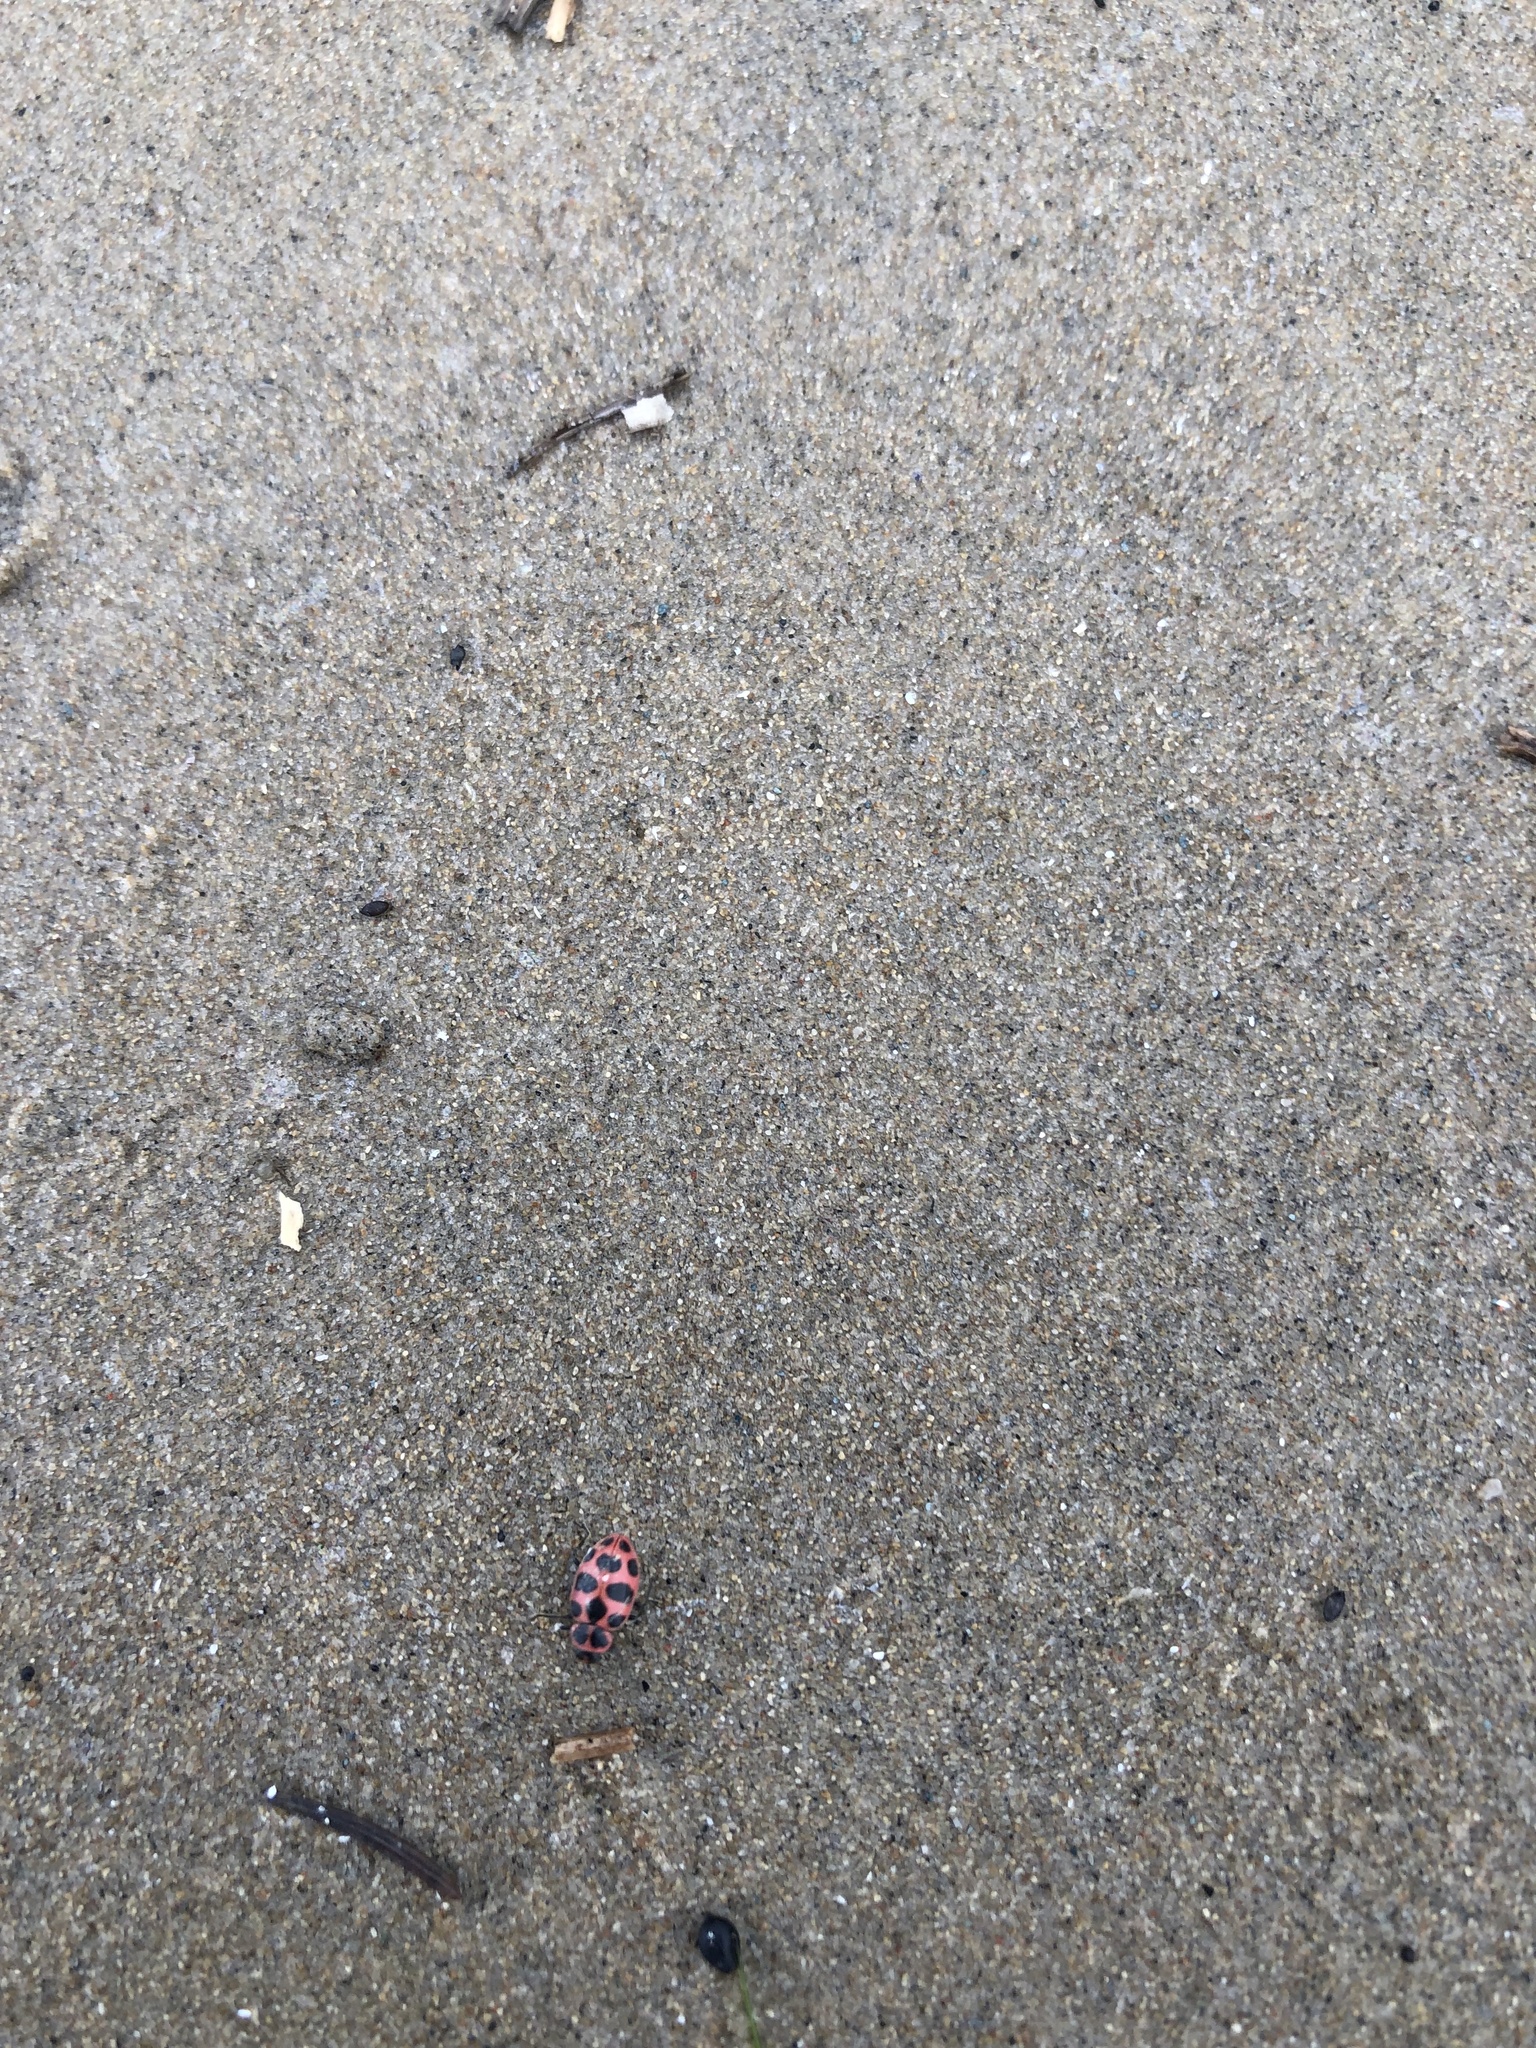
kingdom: Animalia
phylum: Arthropoda
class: Insecta
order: Coleoptera
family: Coccinellidae
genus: Coleomegilla
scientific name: Coleomegilla maculata
